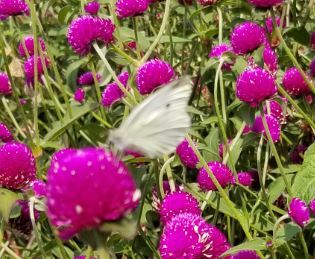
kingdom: Animalia
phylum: Arthropoda
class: Insecta
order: Lepidoptera
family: Pieridae
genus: Pieris
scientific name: Pieris rapae
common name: Small white
